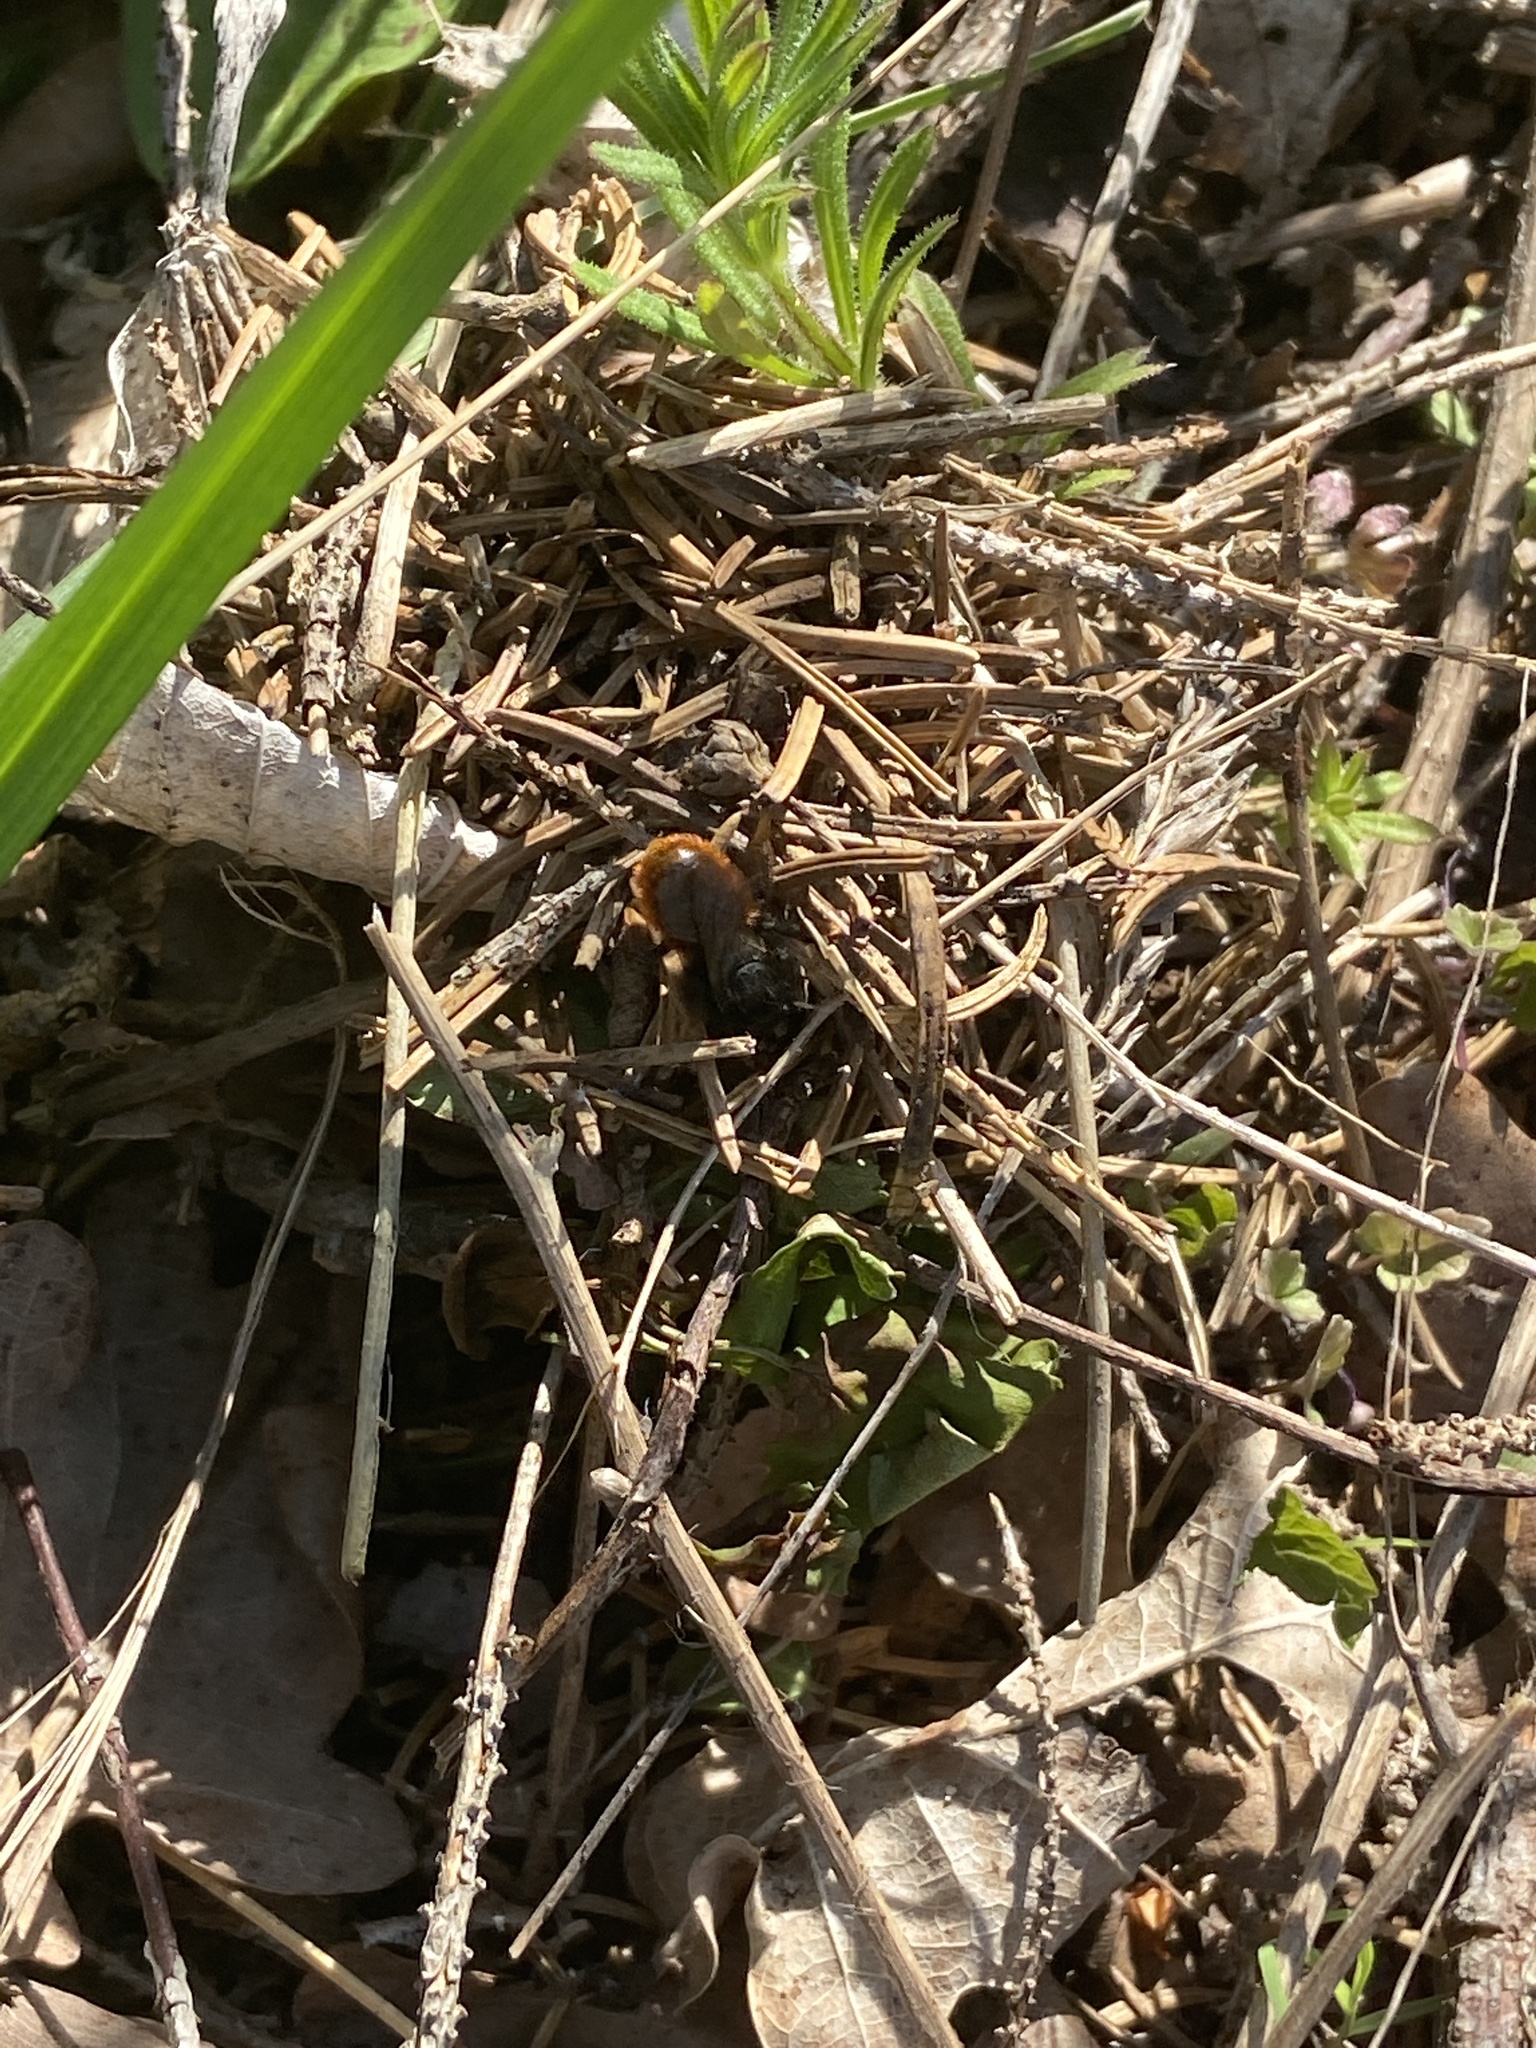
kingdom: Animalia
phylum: Arthropoda
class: Insecta
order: Hymenoptera
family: Megachilidae
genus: Osmia
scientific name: Osmia bicolor
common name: Red-tailed mason bee
